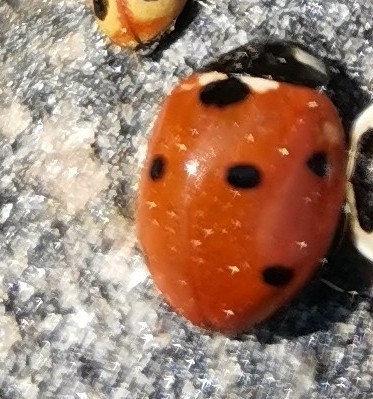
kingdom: Animalia
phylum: Arthropoda
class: Insecta
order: Coleoptera
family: Coccinellidae
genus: Coccinella
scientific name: Coccinella septempunctata
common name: Sevenspotted lady beetle
